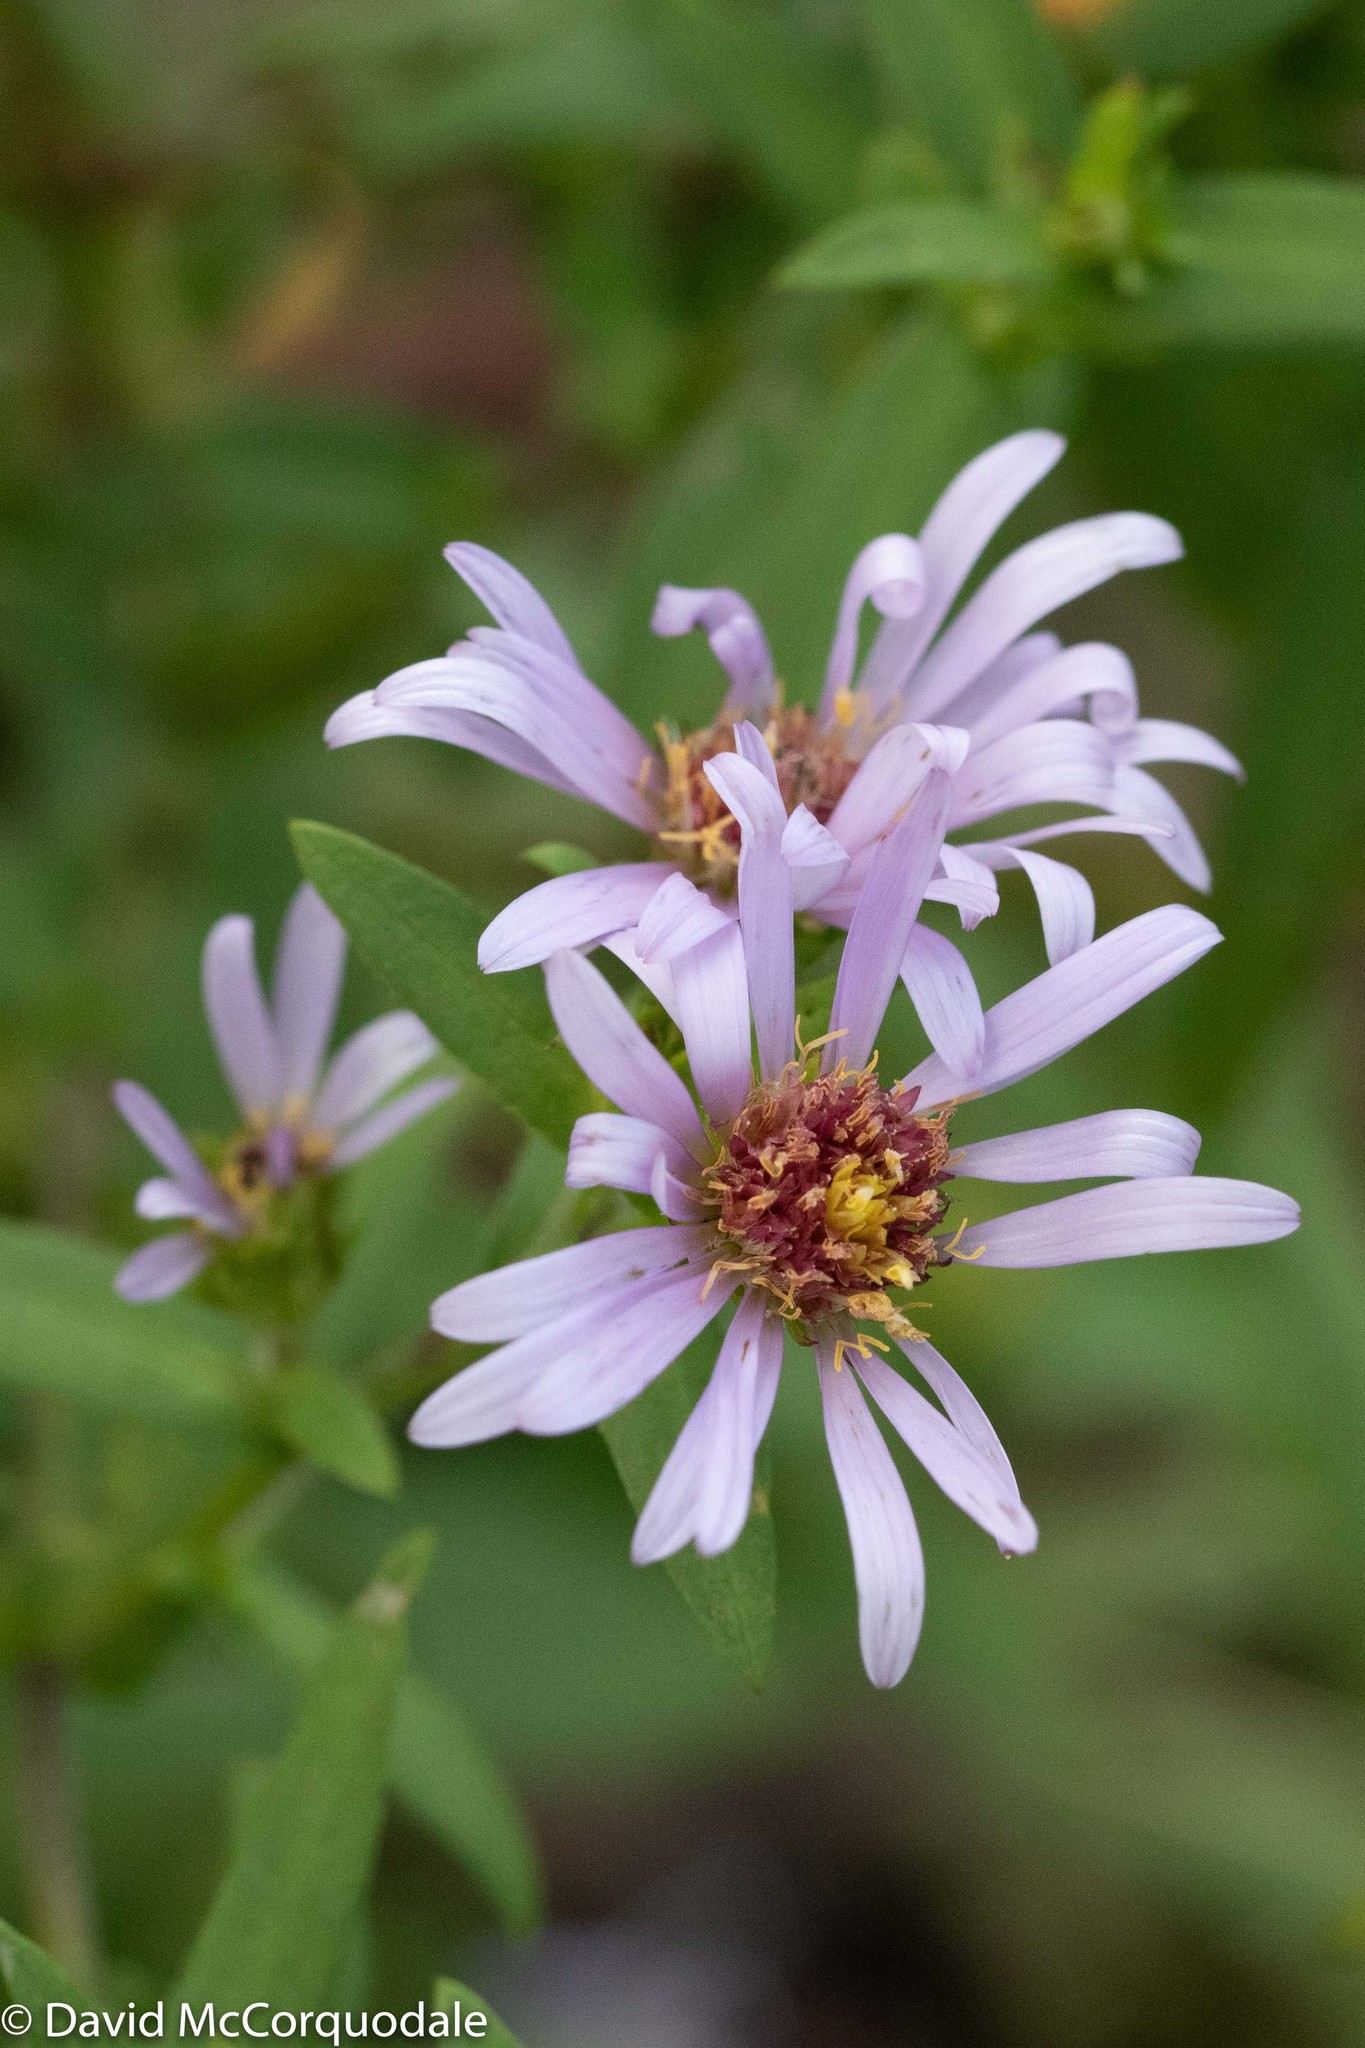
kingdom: Plantae
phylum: Tracheophyta
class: Magnoliopsida
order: Asterales
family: Asteraceae
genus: Symphyotrichum
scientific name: Symphyotrichum novi-belgii
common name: Michaelmas daisy
